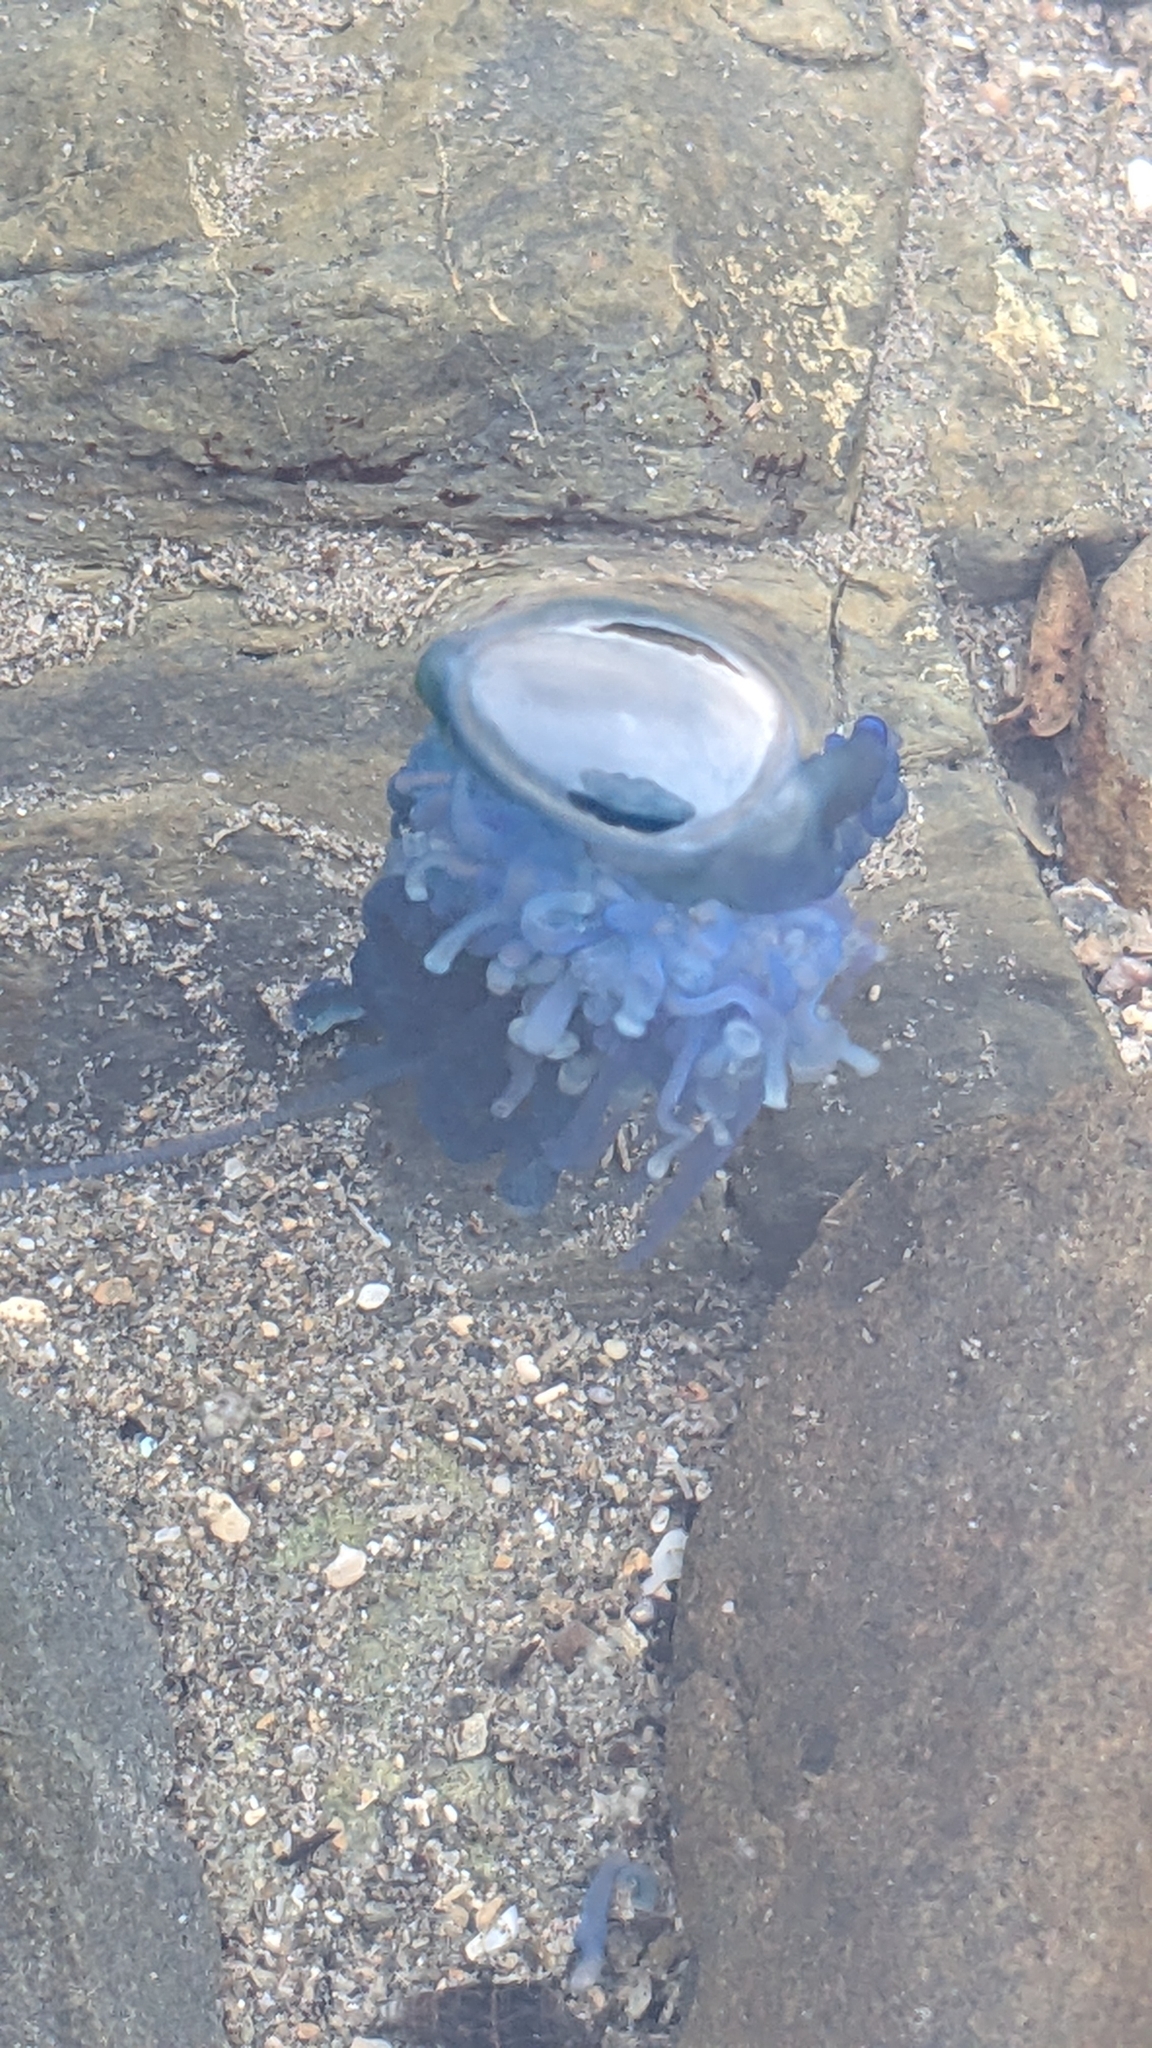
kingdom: Animalia
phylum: Cnidaria
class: Hydrozoa
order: Siphonophorae
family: Physaliidae
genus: Physalia
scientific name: Physalia physalis
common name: Portuguese man-of-war
